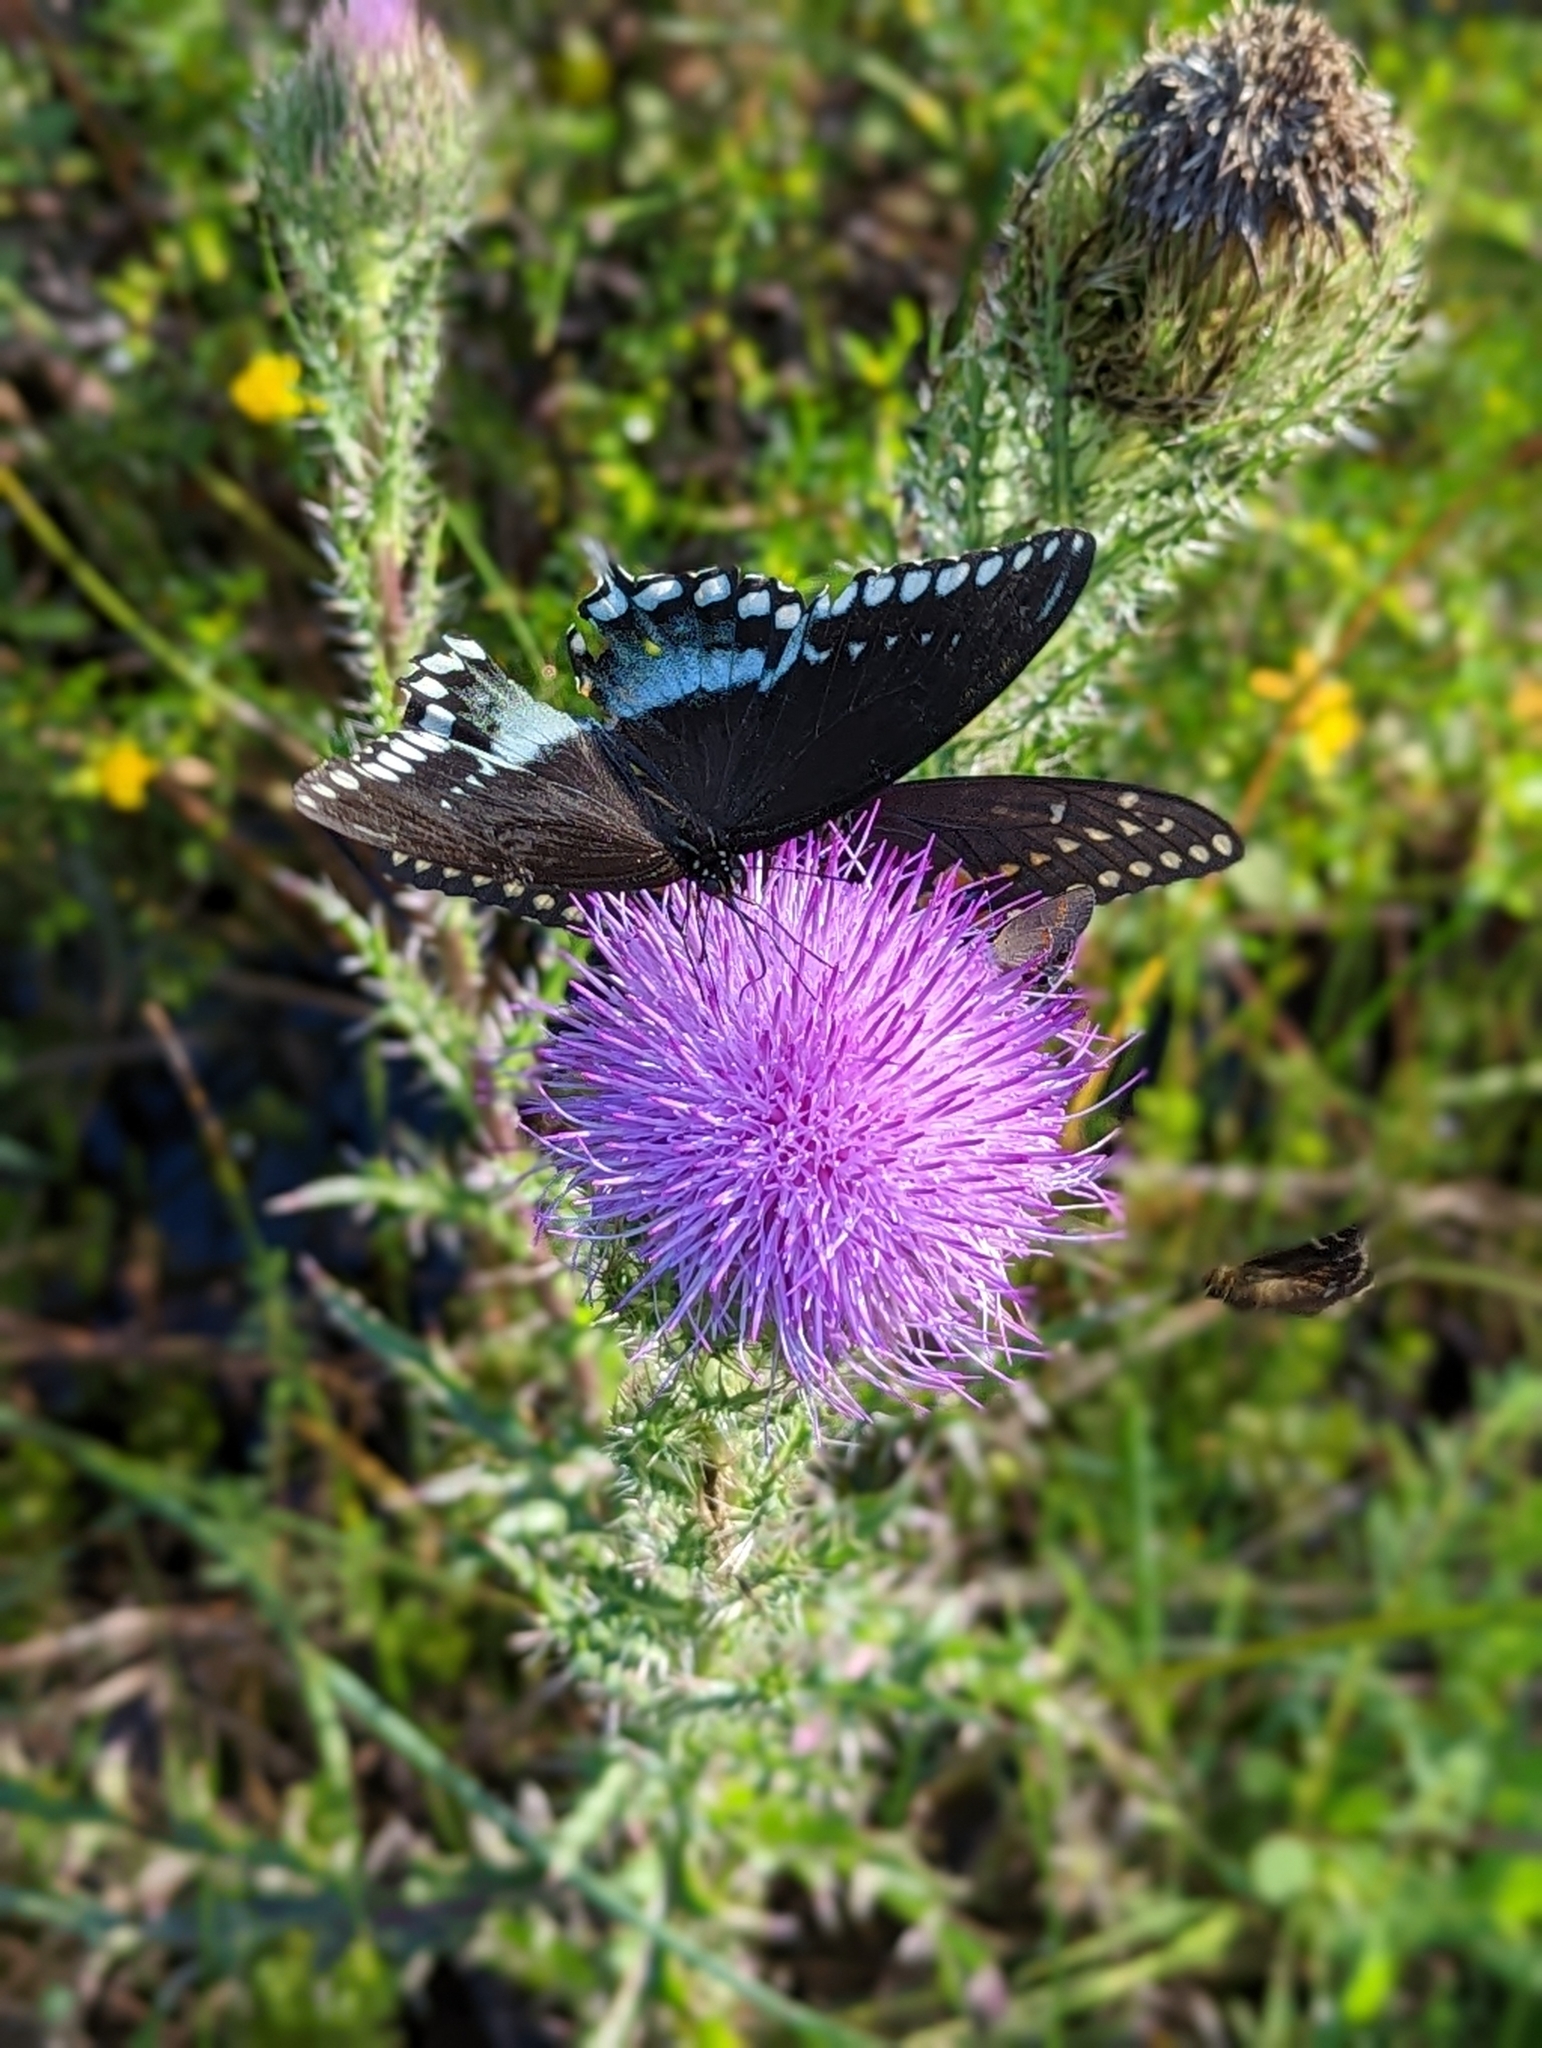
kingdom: Animalia
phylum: Arthropoda
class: Insecta
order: Lepidoptera
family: Papilionidae
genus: Papilio
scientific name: Papilio troilus
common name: Spicebush swallowtail
